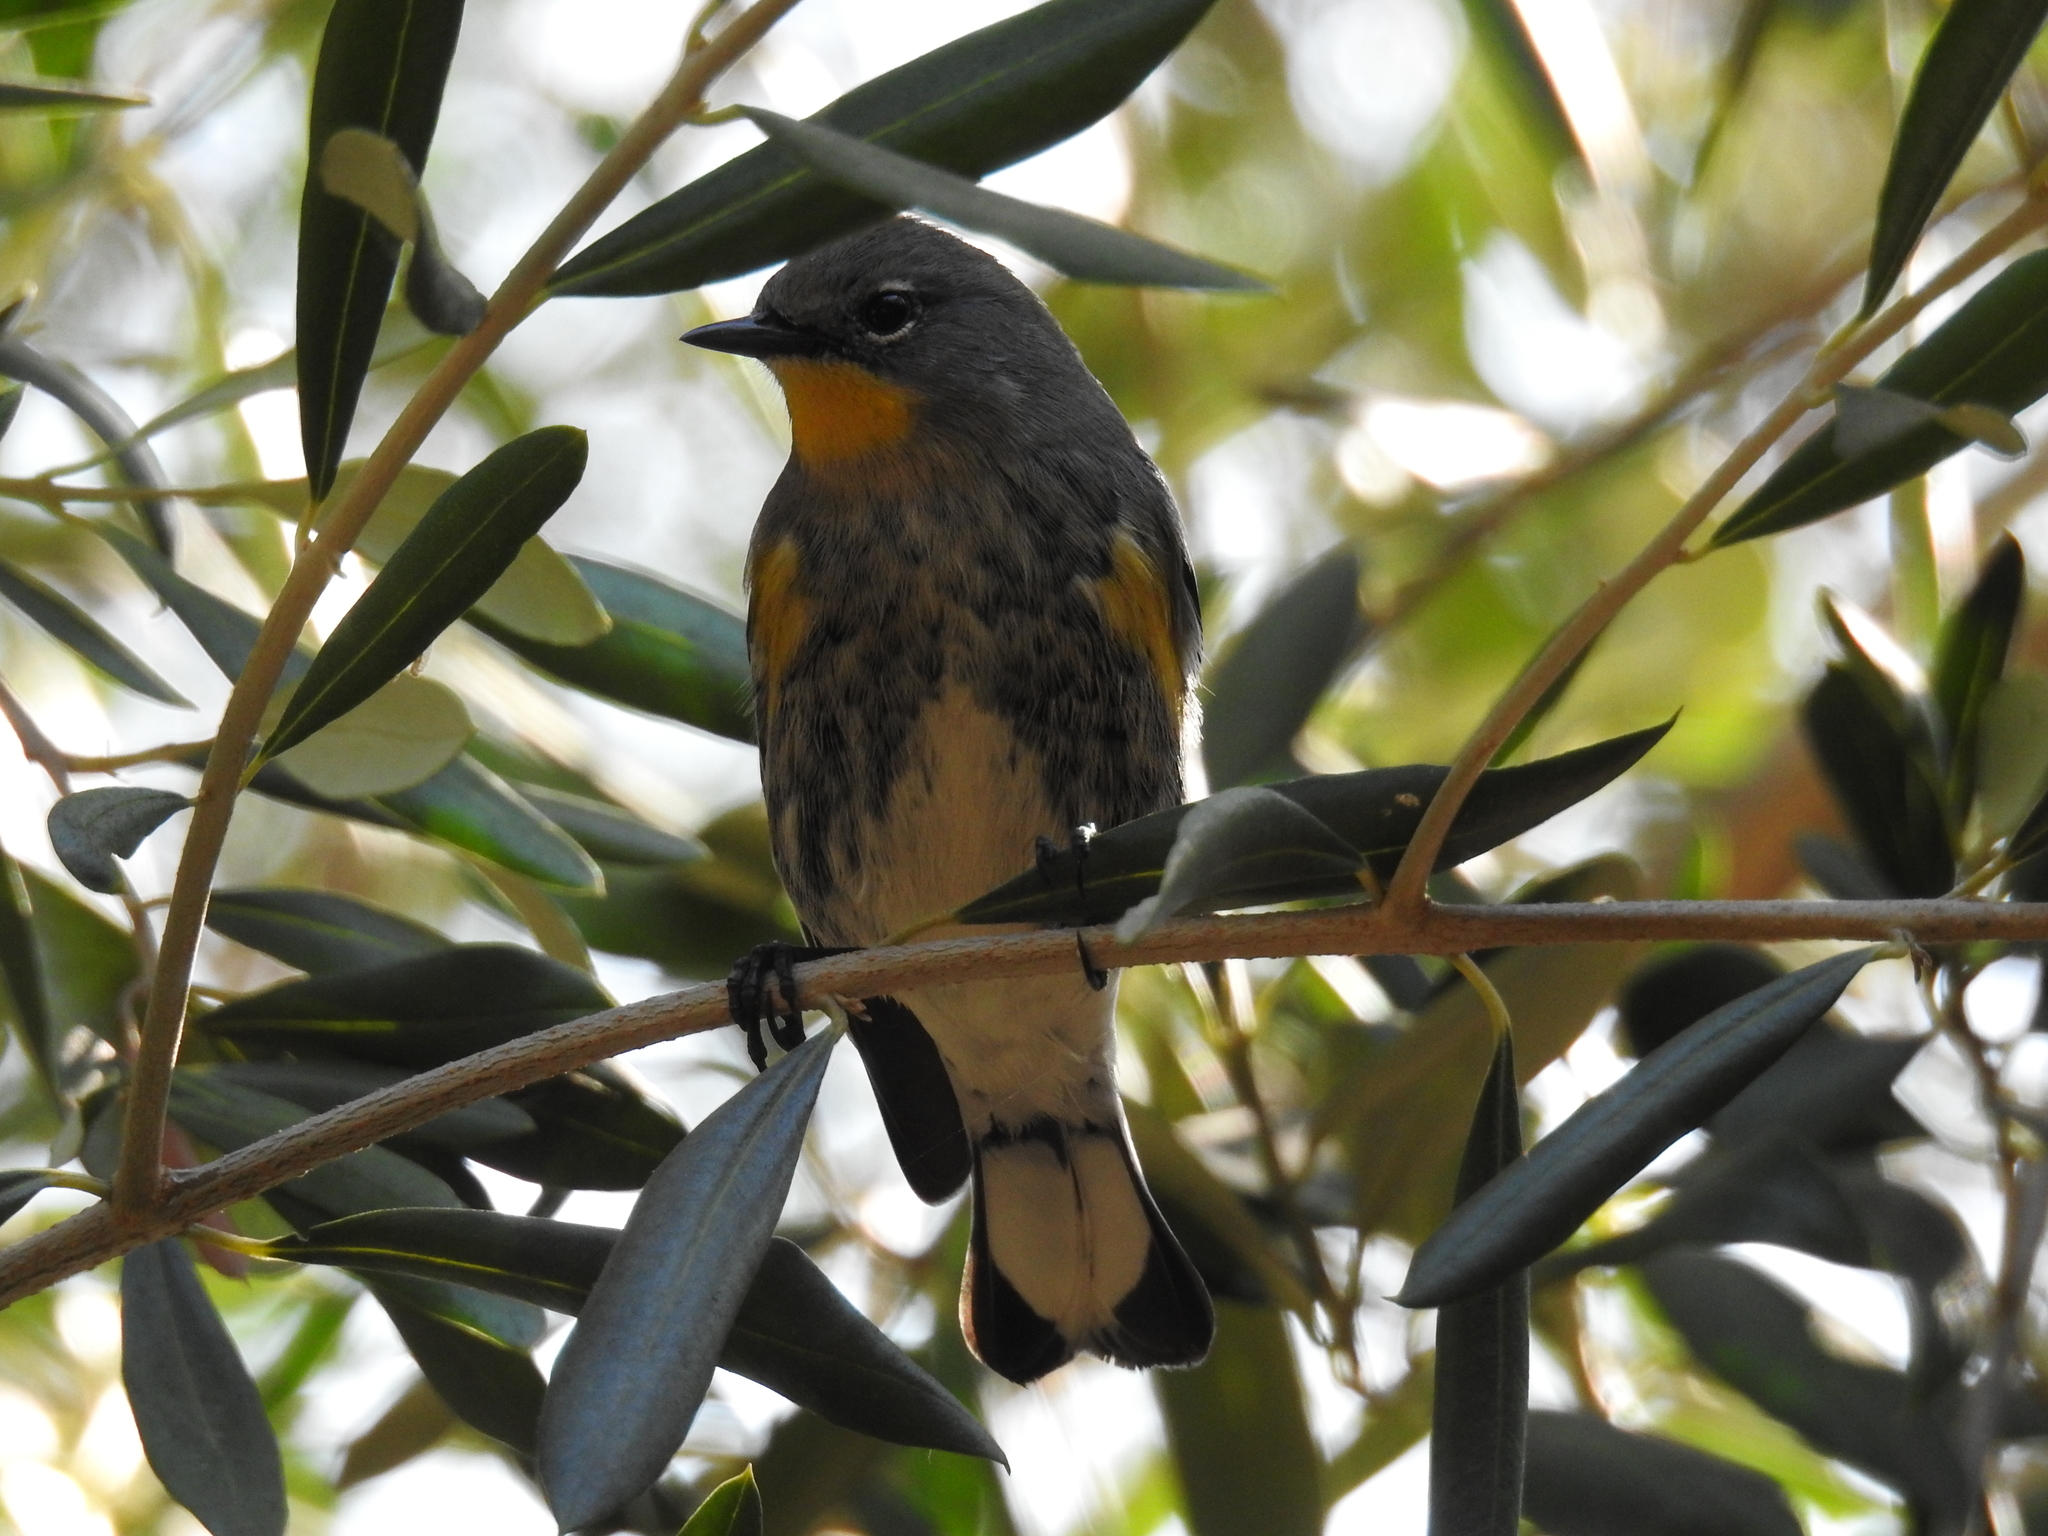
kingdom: Animalia
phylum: Chordata
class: Aves
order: Passeriformes
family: Parulidae
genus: Setophaga
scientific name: Setophaga auduboni
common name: Audubon's warbler
